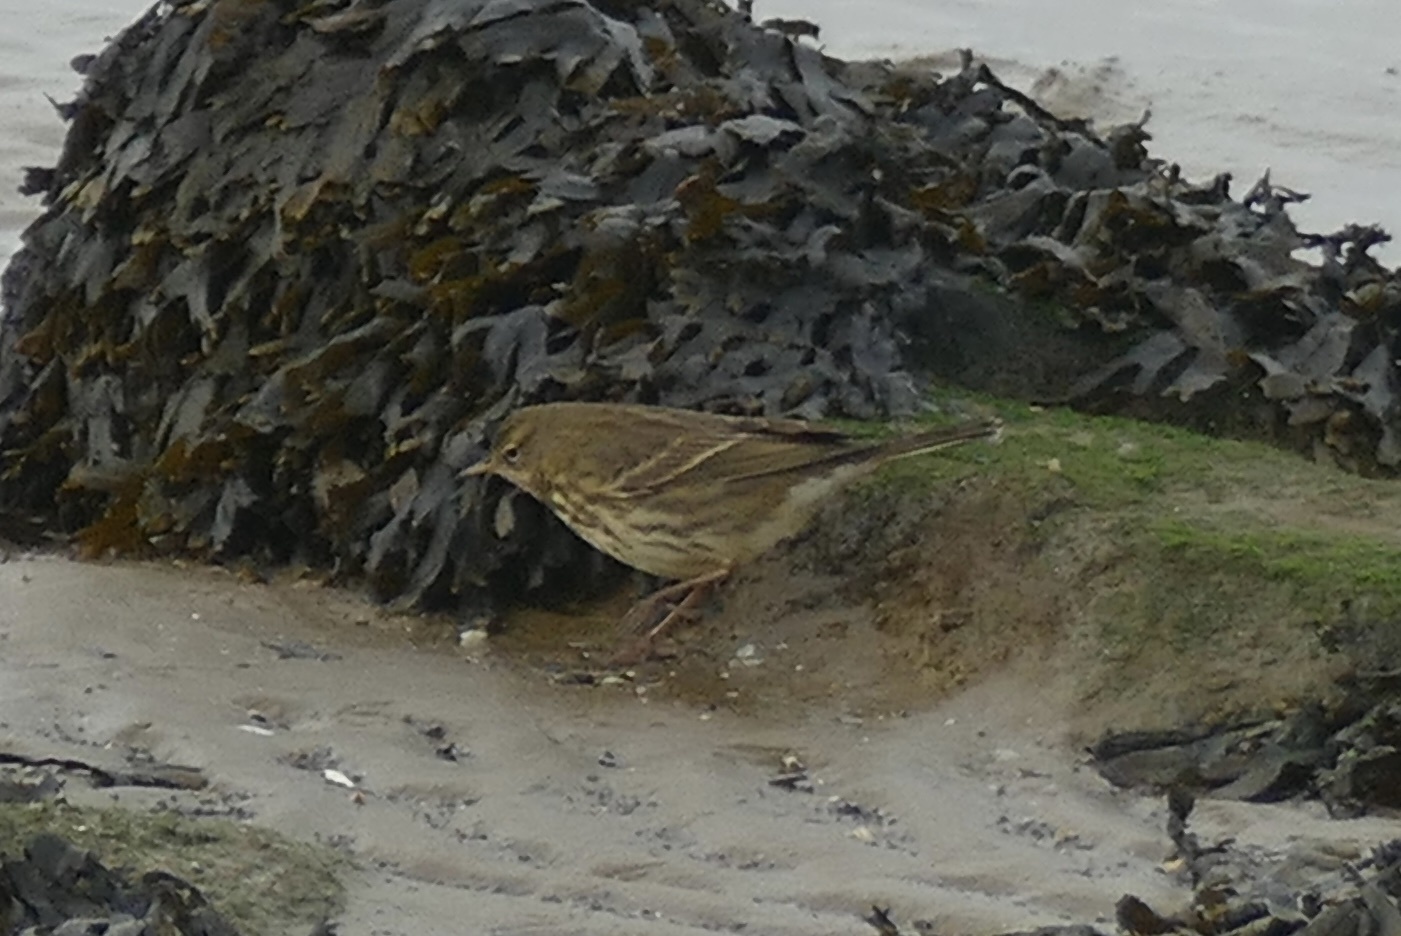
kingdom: Animalia
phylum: Chordata
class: Aves
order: Passeriformes
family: Motacillidae
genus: Anthus
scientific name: Anthus petrosus
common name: Eurasian rock pipit
